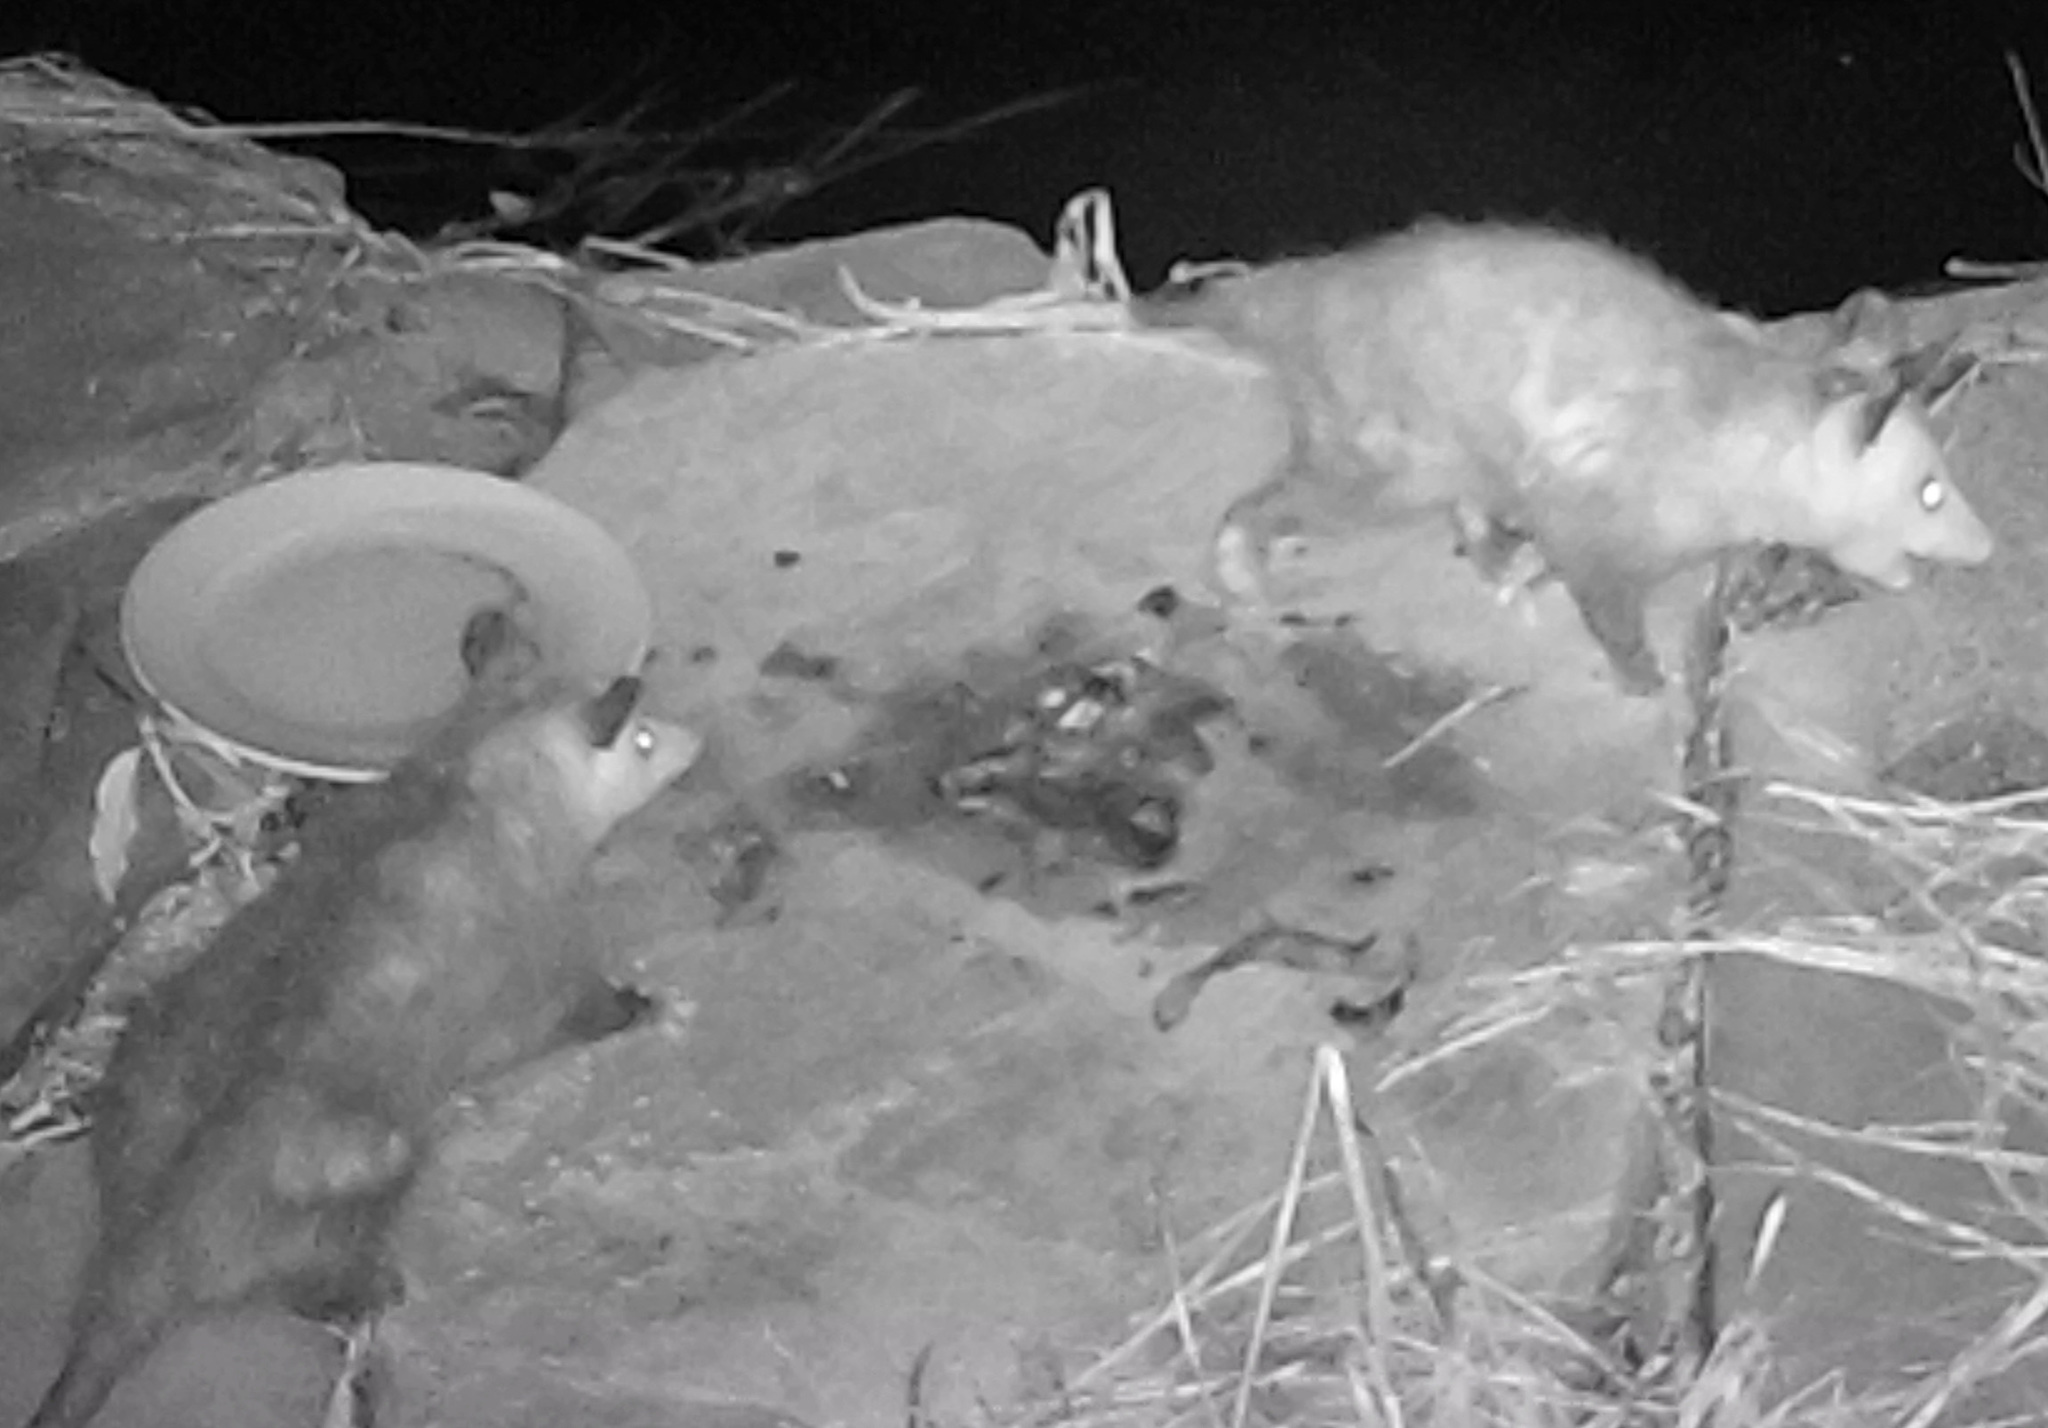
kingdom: Animalia
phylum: Chordata
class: Mammalia
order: Didelphimorphia
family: Didelphidae
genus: Didelphis
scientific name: Didelphis virginiana
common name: Virginia opossum
